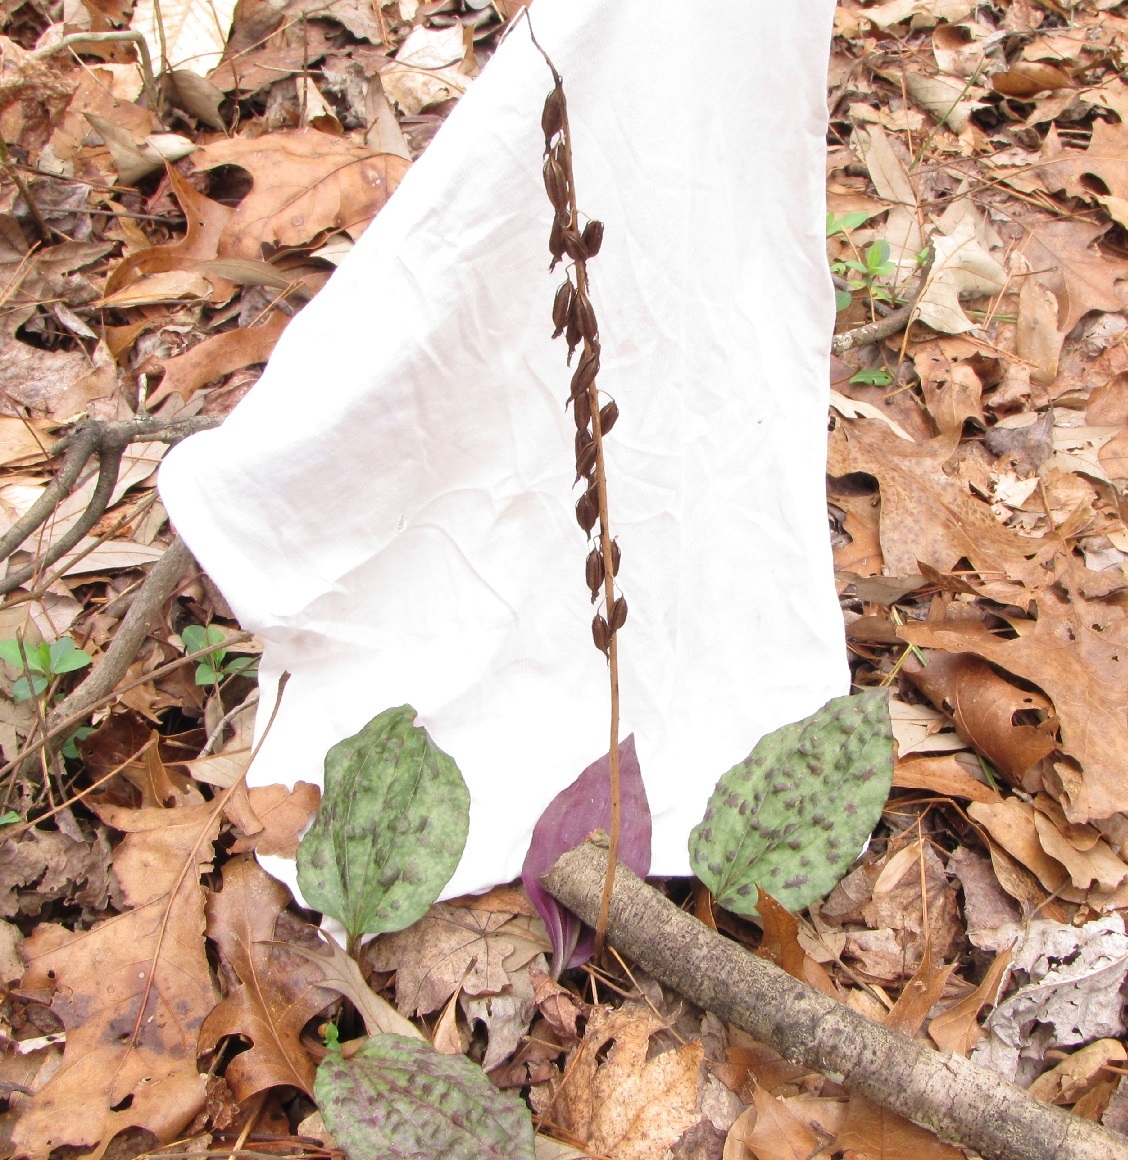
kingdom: Plantae
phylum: Tracheophyta
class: Liliopsida
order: Asparagales
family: Orchidaceae
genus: Tipularia
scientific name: Tipularia discolor
